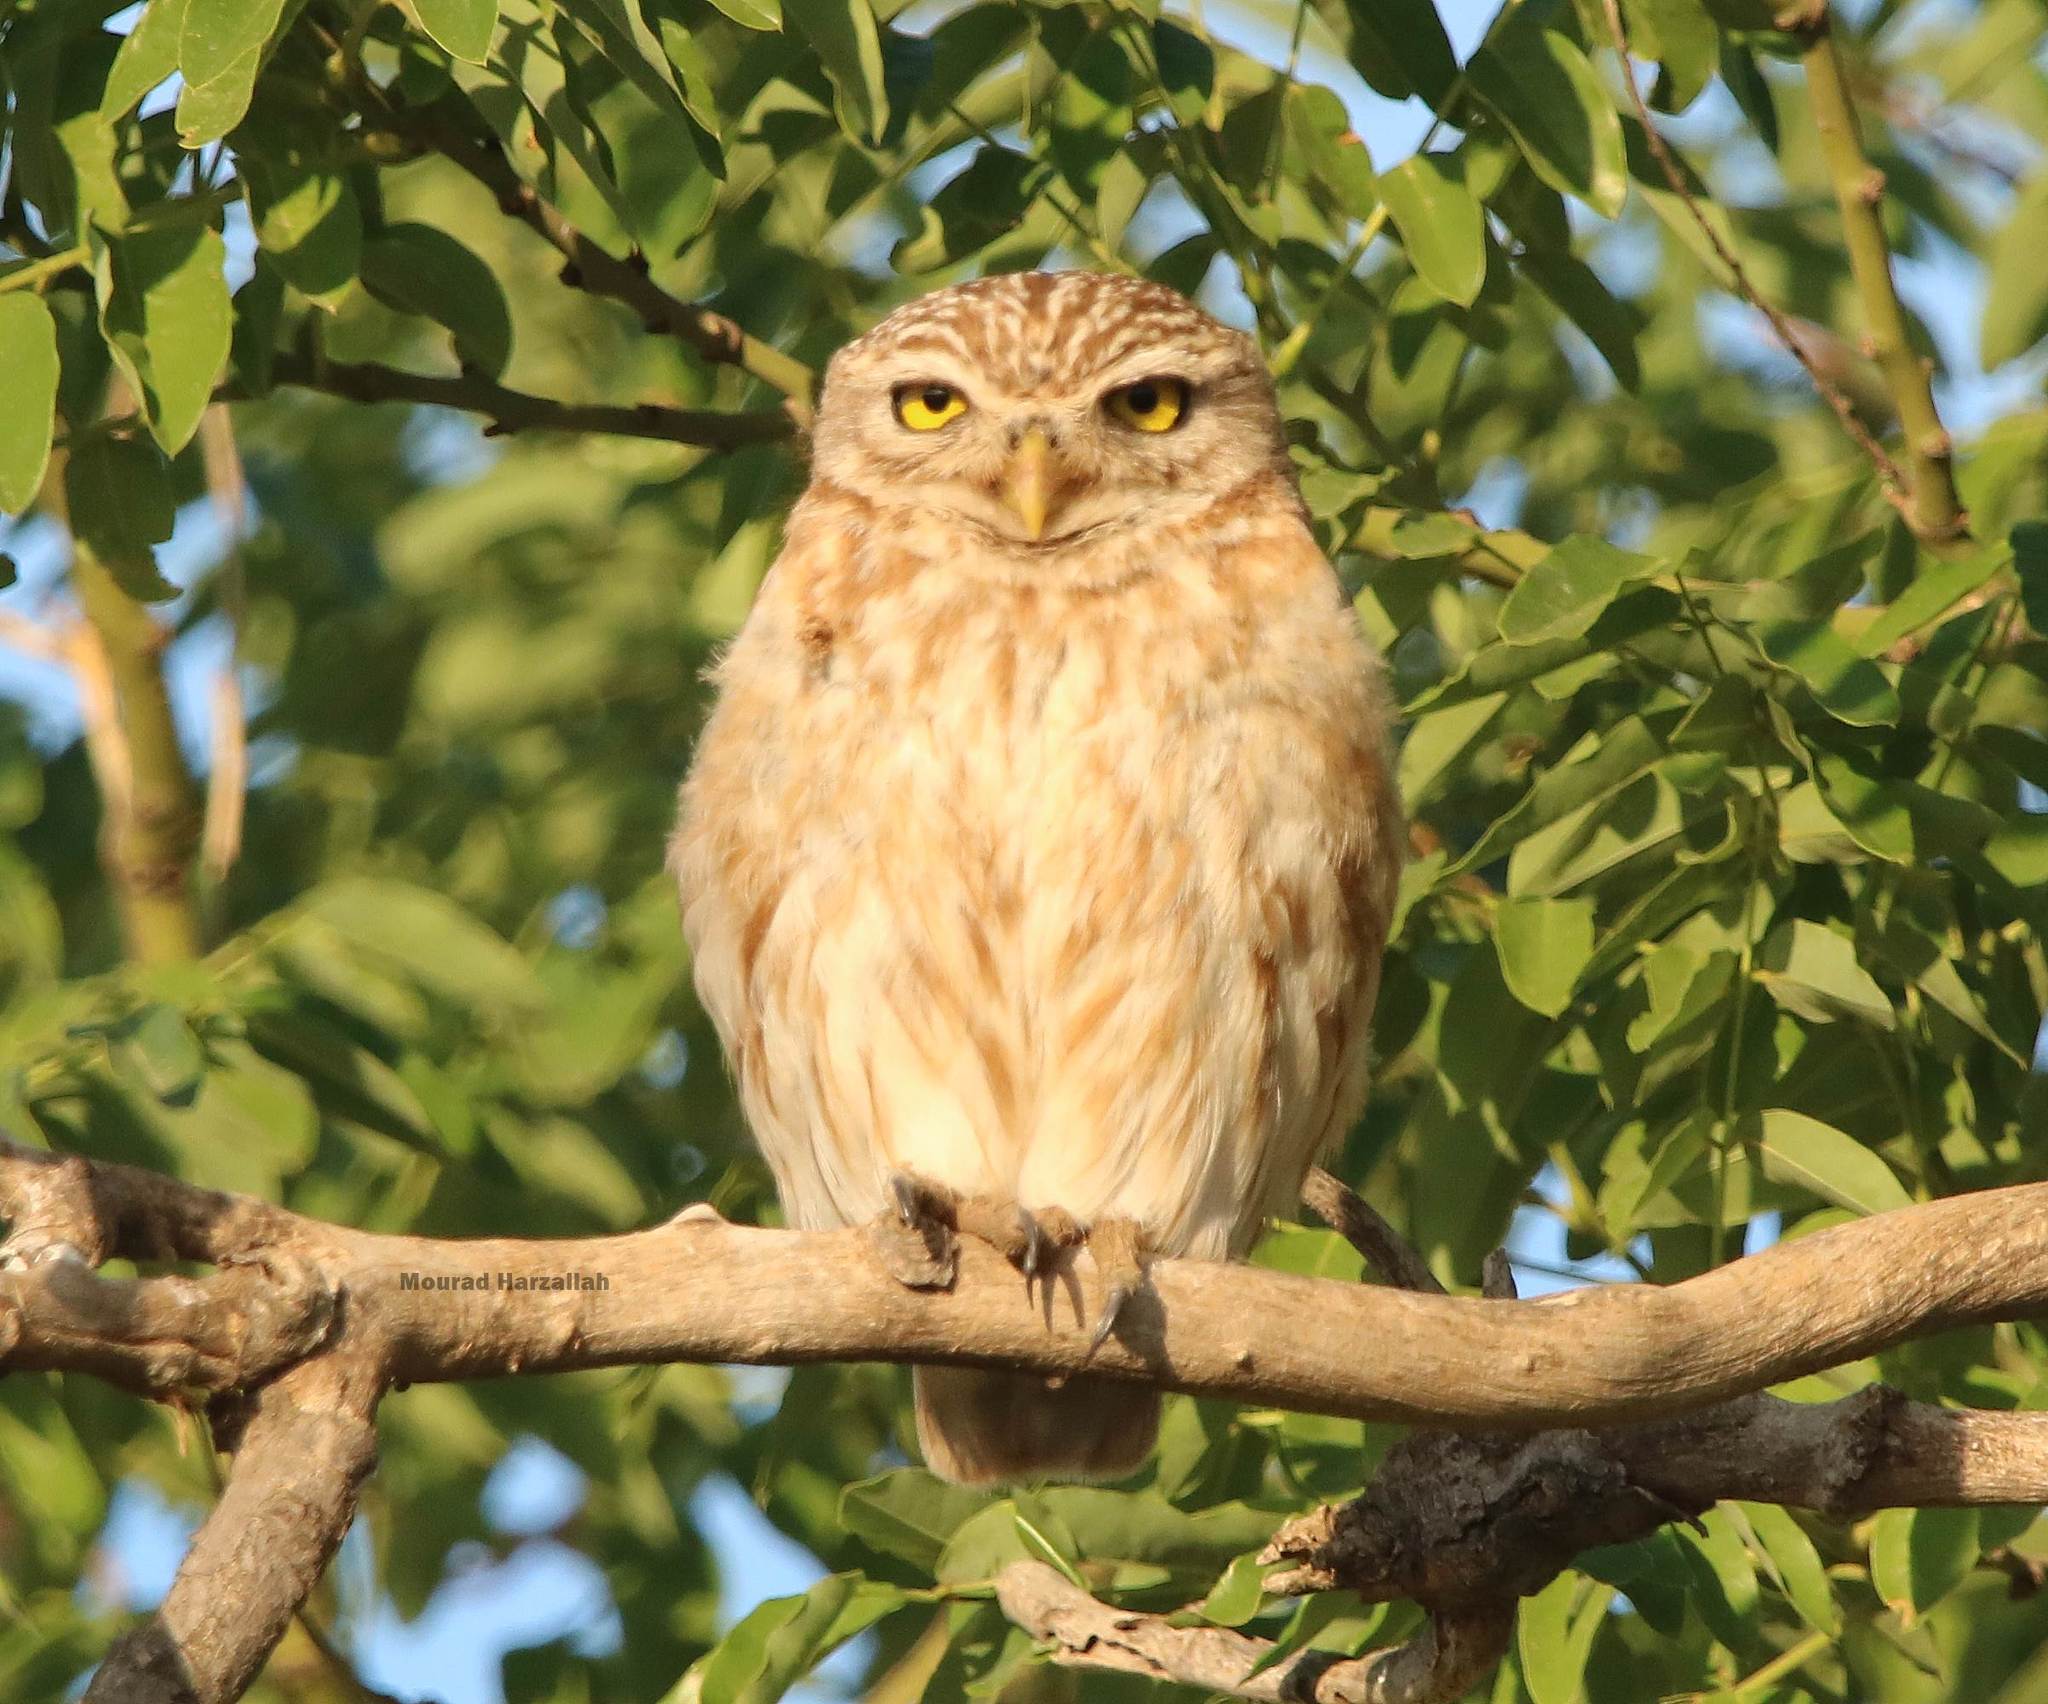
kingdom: Animalia
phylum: Chordata
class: Aves
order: Strigiformes
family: Strigidae
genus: Athene
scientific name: Athene noctua
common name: Little owl
